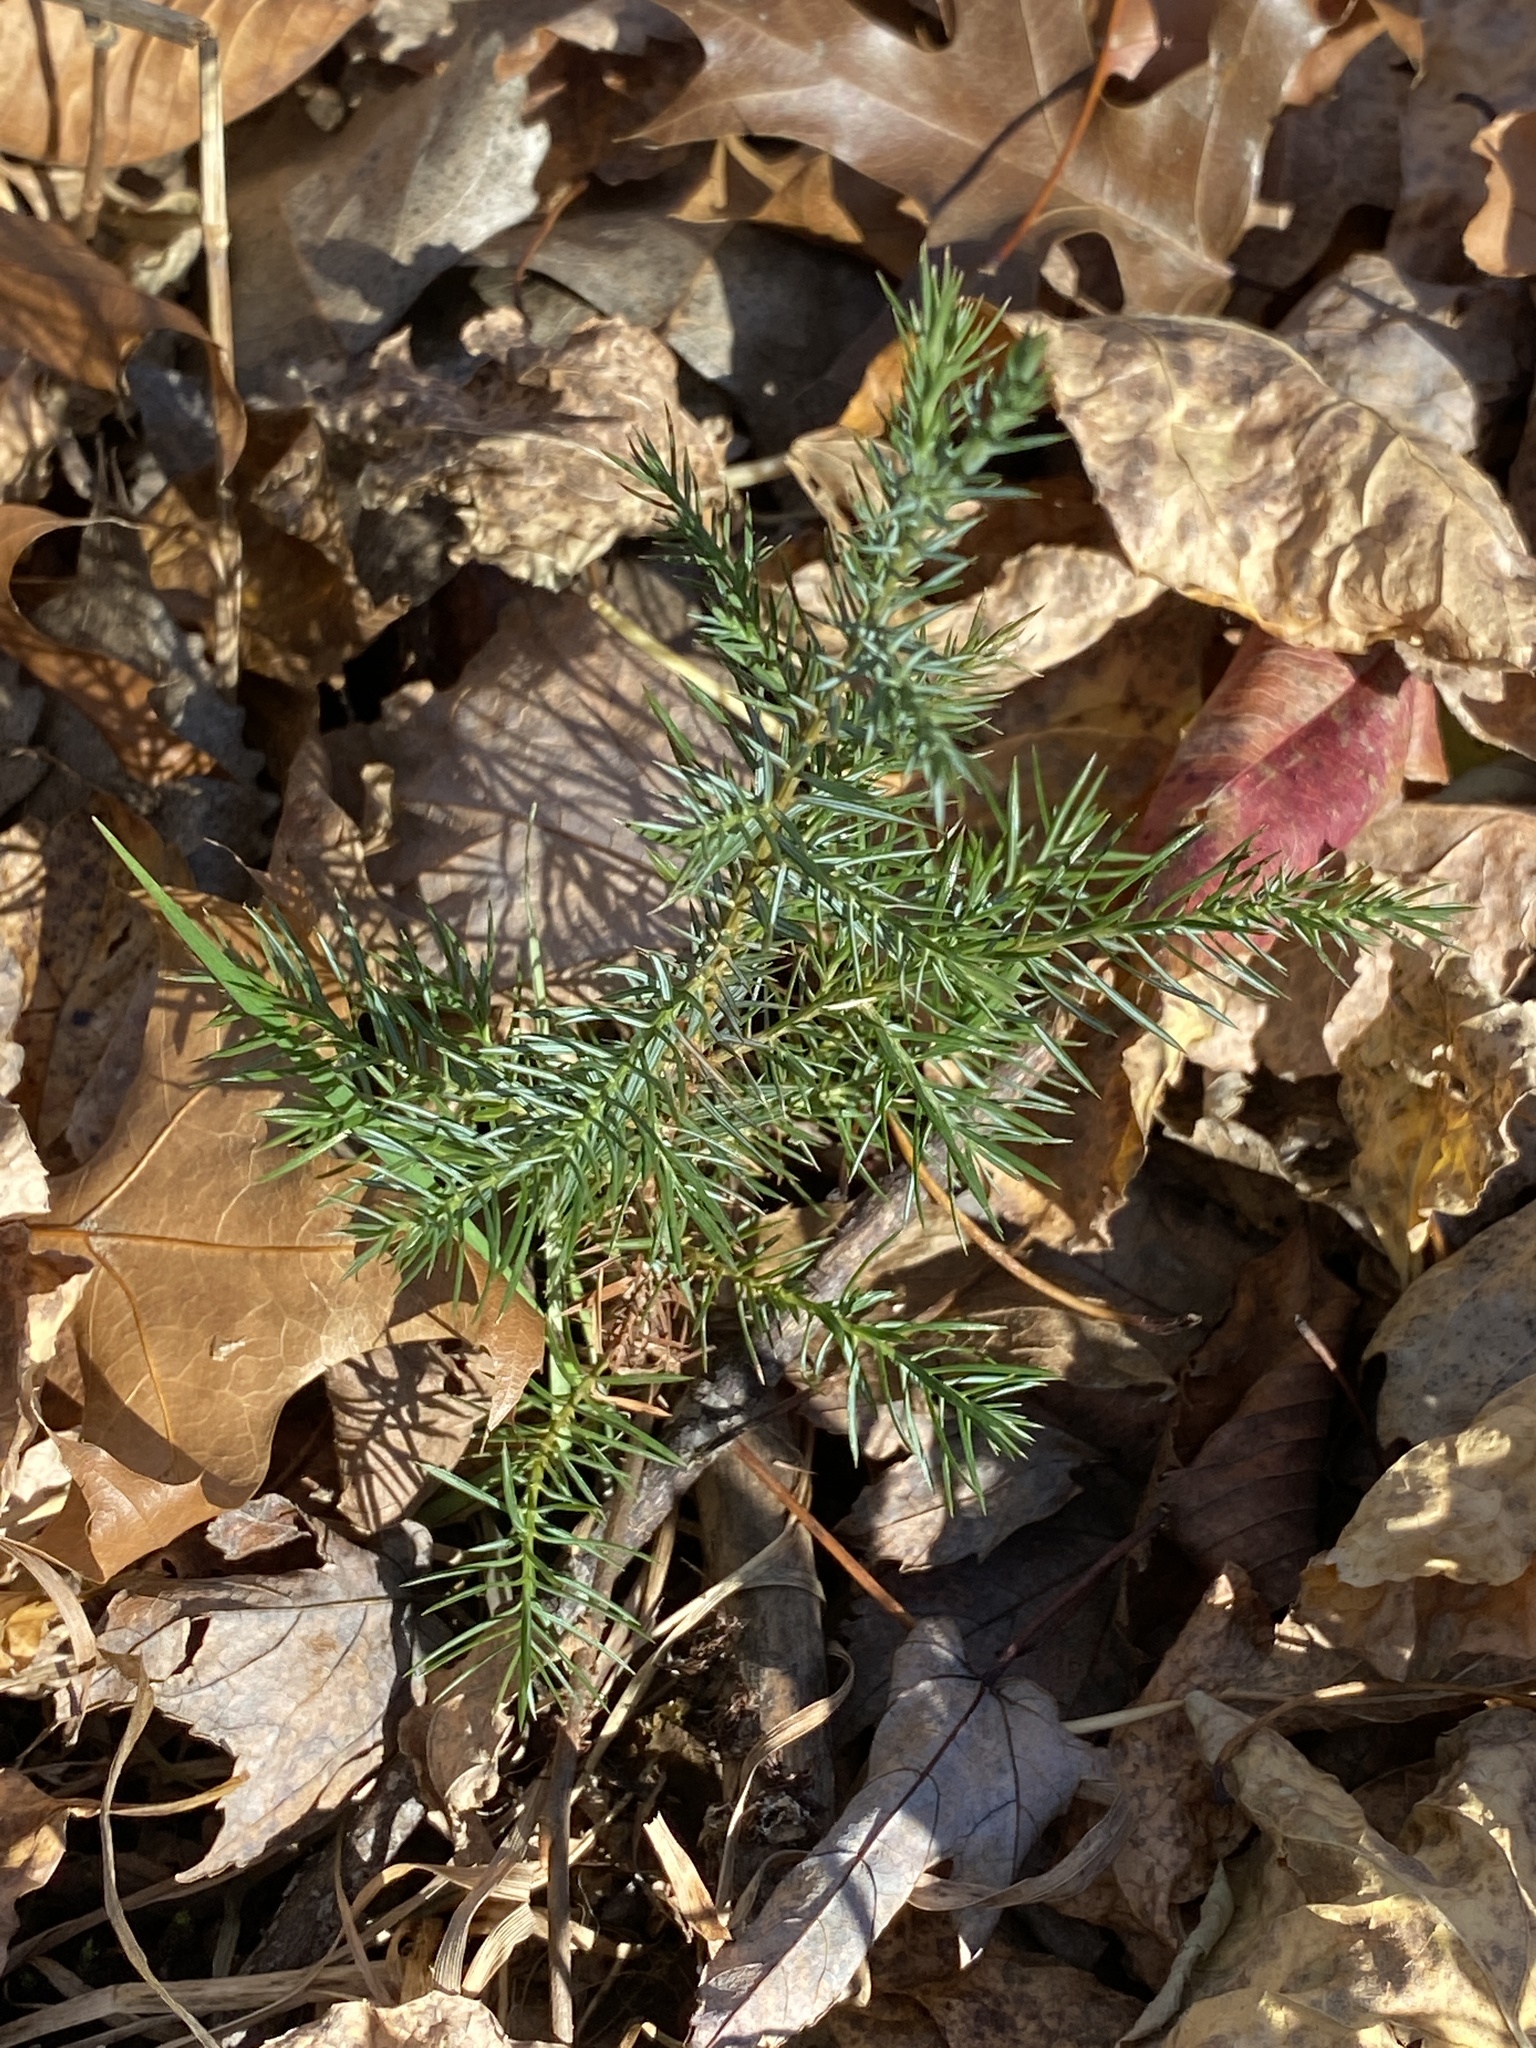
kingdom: Plantae
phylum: Tracheophyta
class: Pinopsida
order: Pinales
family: Cupressaceae
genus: Juniperus
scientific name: Juniperus virginiana
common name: Red juniper
